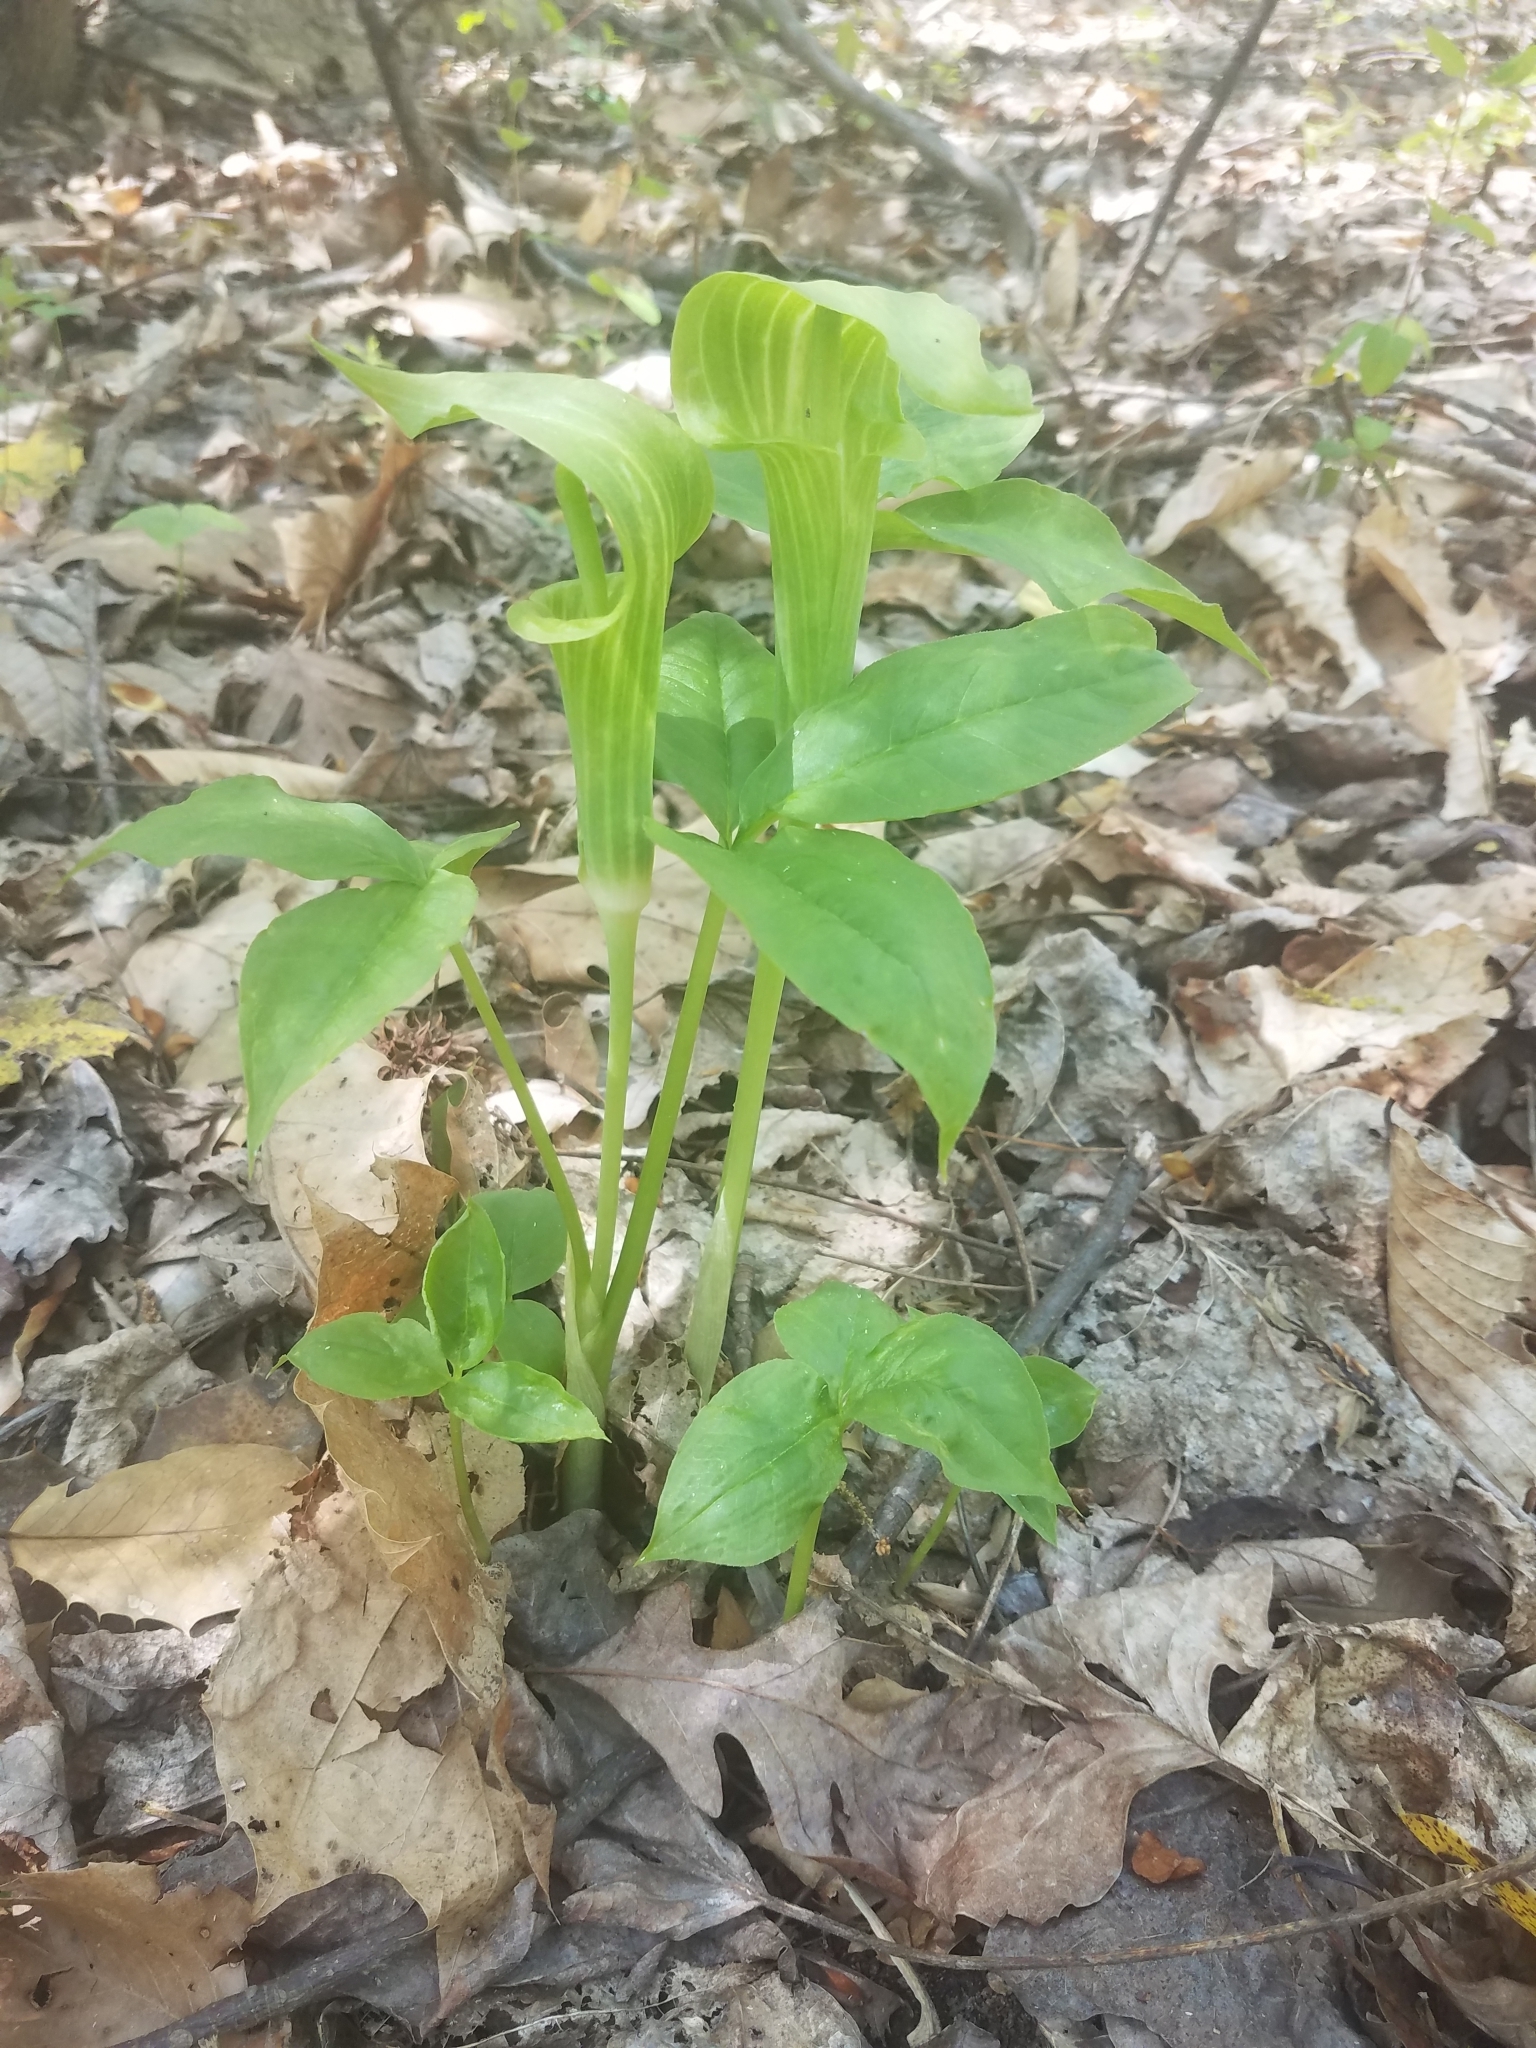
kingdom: Plantae
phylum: Tracheophyta
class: Liliopsida
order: Alismatales
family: Araceae
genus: Arisaema
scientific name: Arisaema triphyllum
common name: Jack-in-the-pulpit
